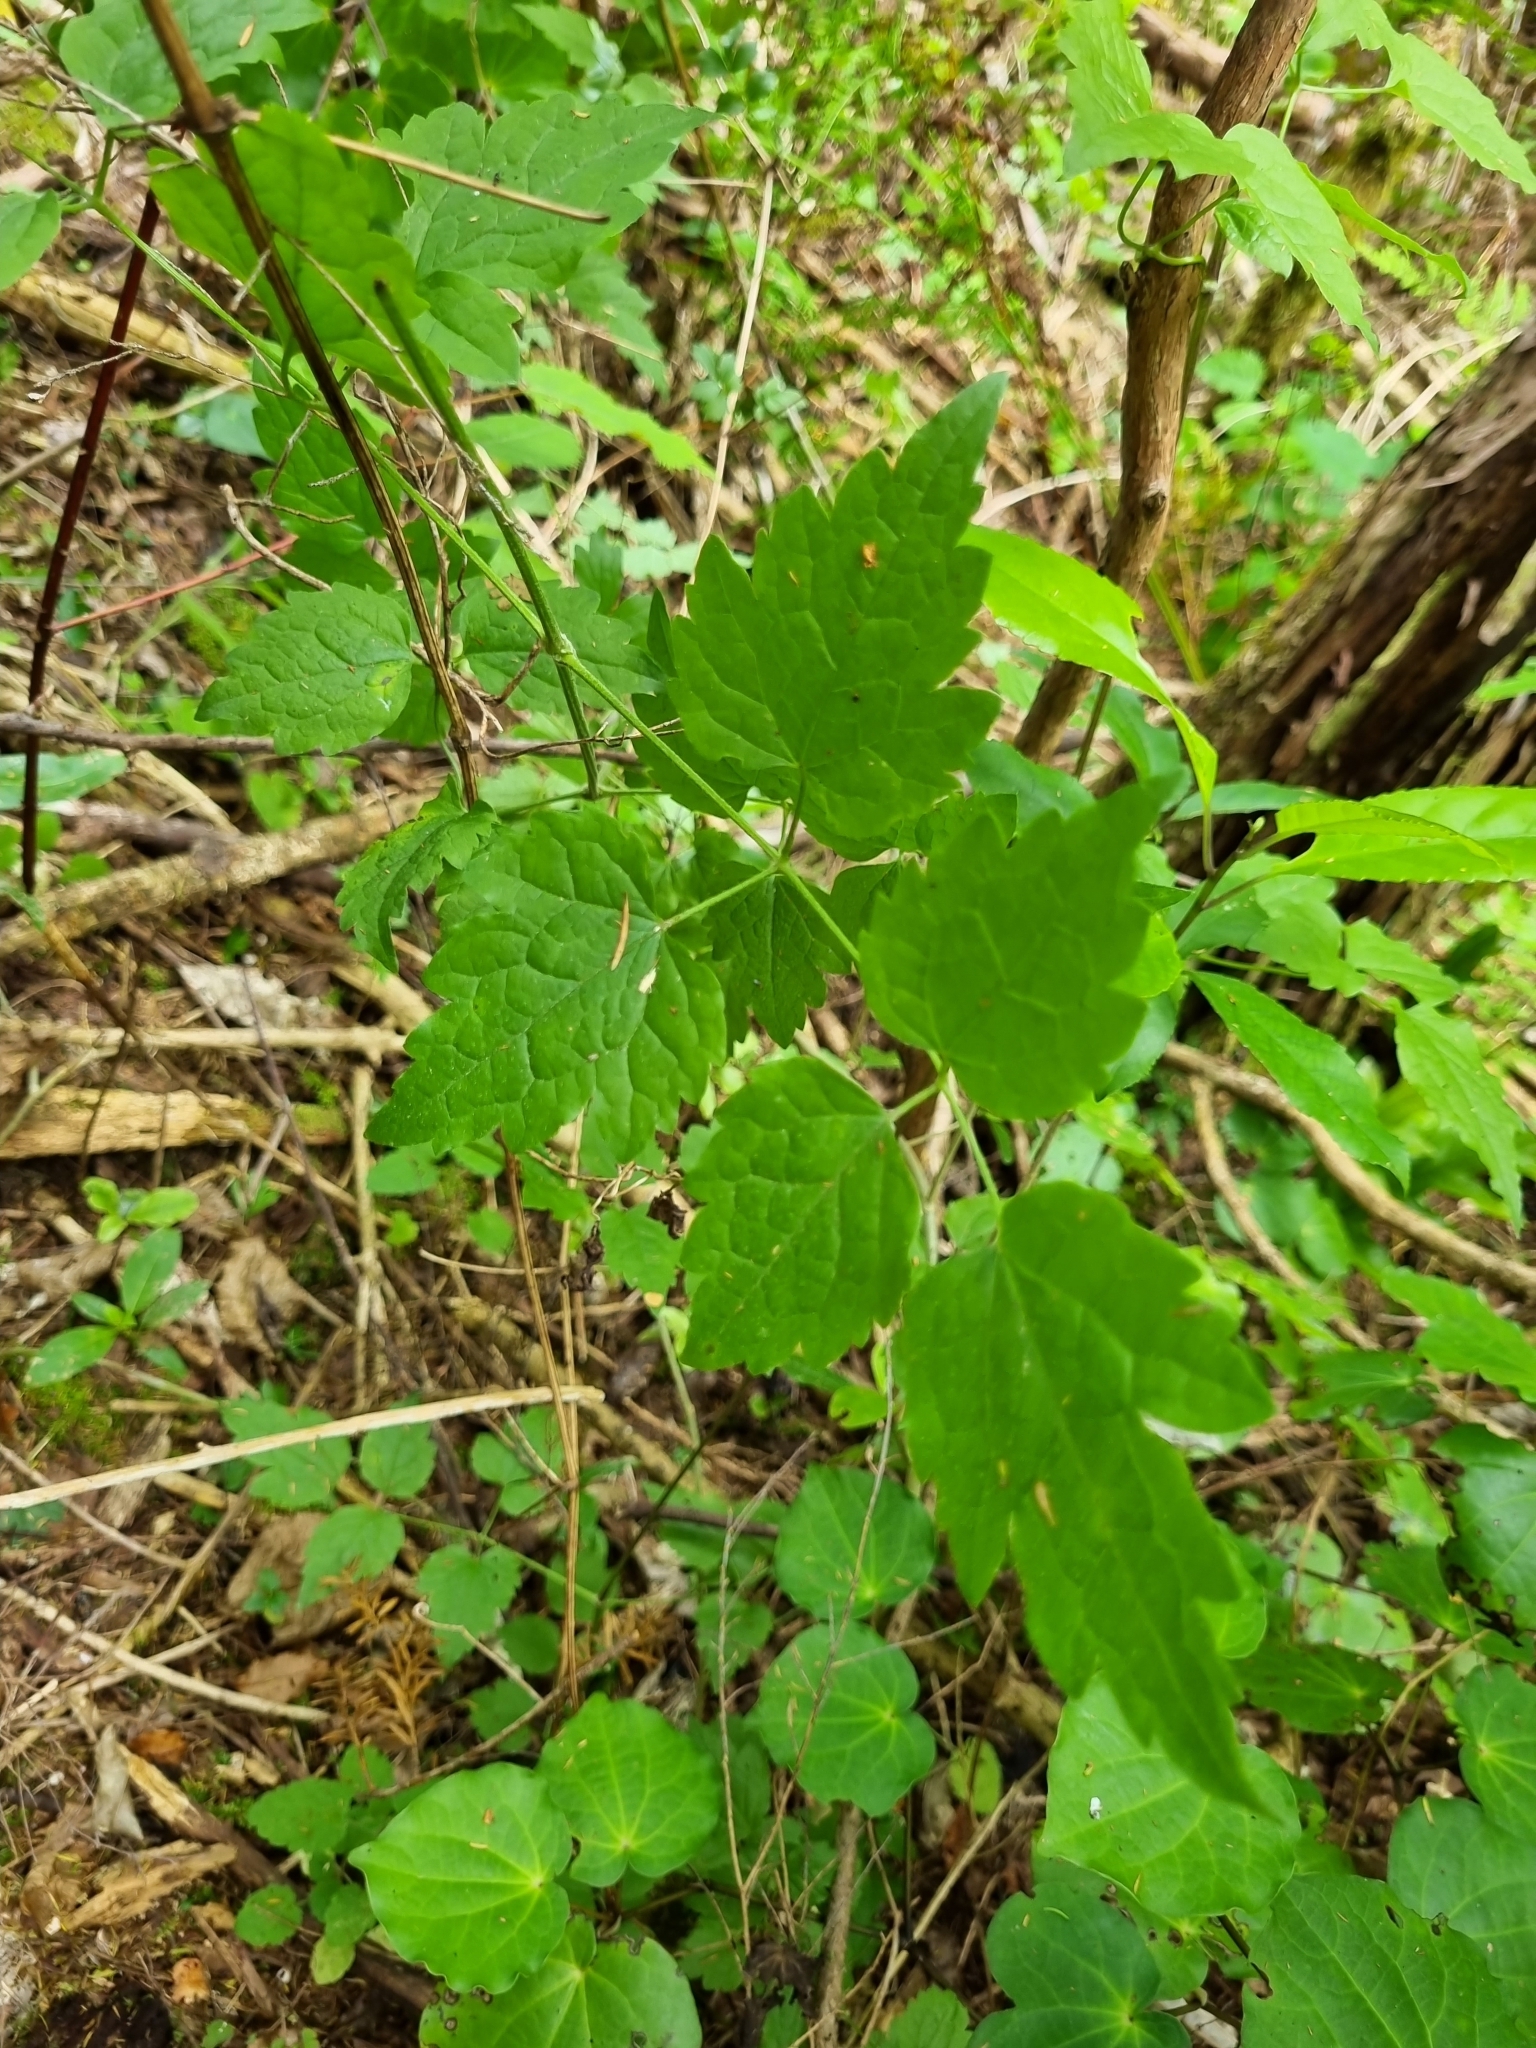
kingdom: Plantae
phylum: Tracheophyta
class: Magnoliopsida
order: Ranunculales
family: Ranunculaceae
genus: Clematis
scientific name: Clematis vitalba
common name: Evergreen clematis
